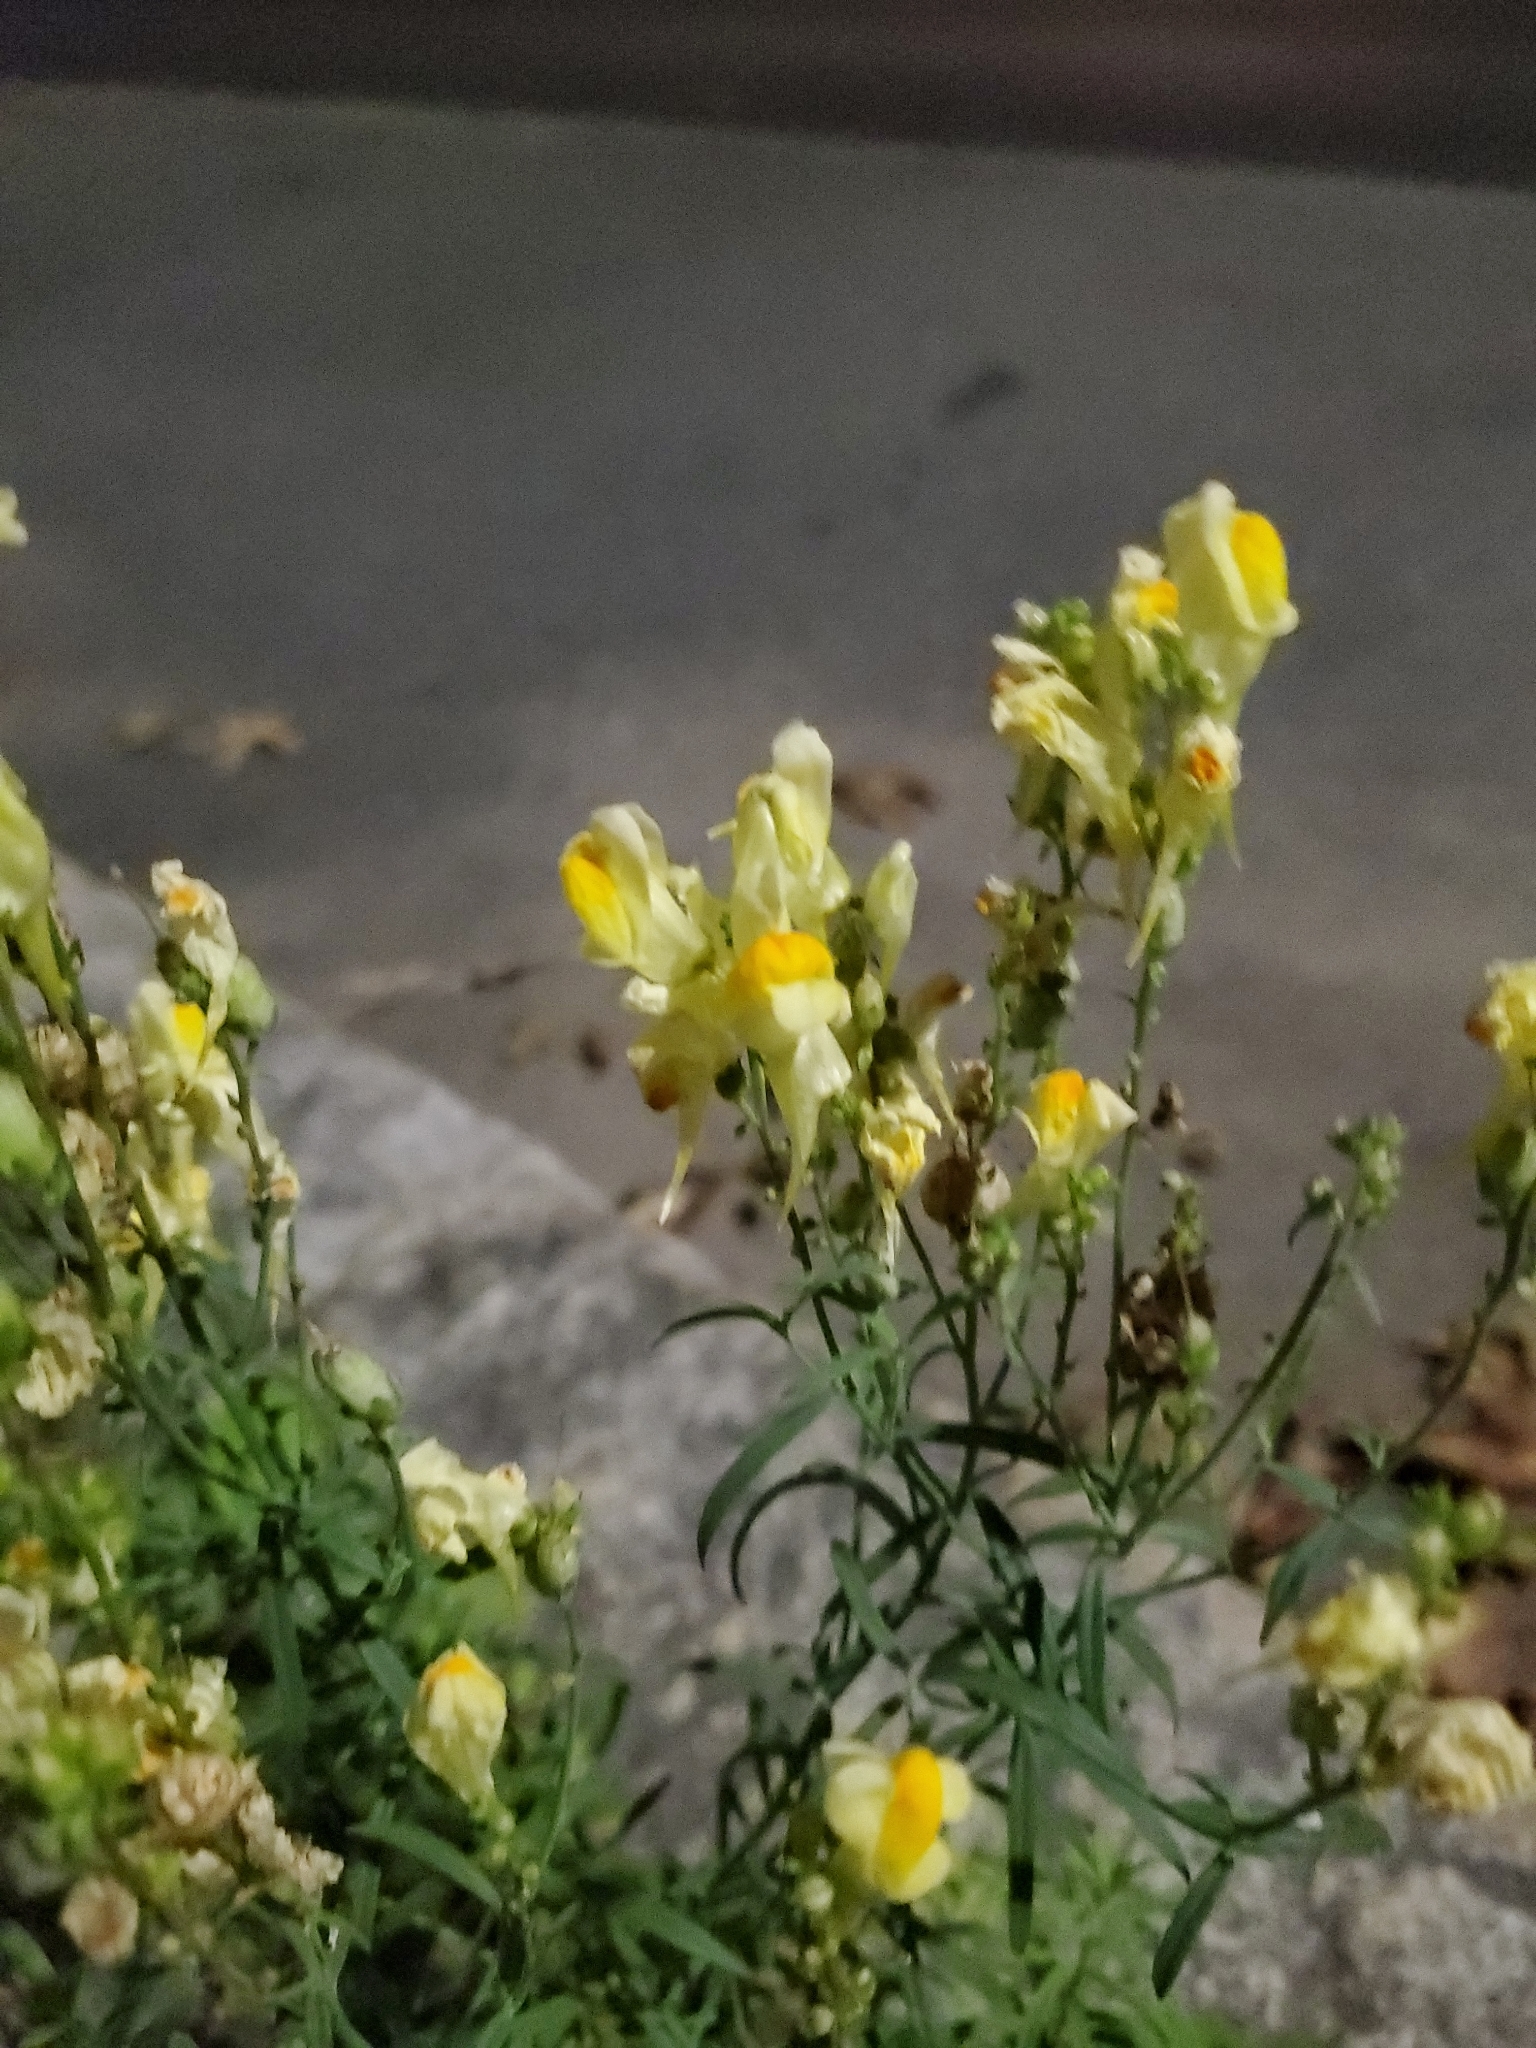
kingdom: Plantae
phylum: Tracheophyta
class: Magnoliopsida
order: Lamiales
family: Plantaginaceae
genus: Linaria
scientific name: Linaria vulgaris
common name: Butter and eggs
